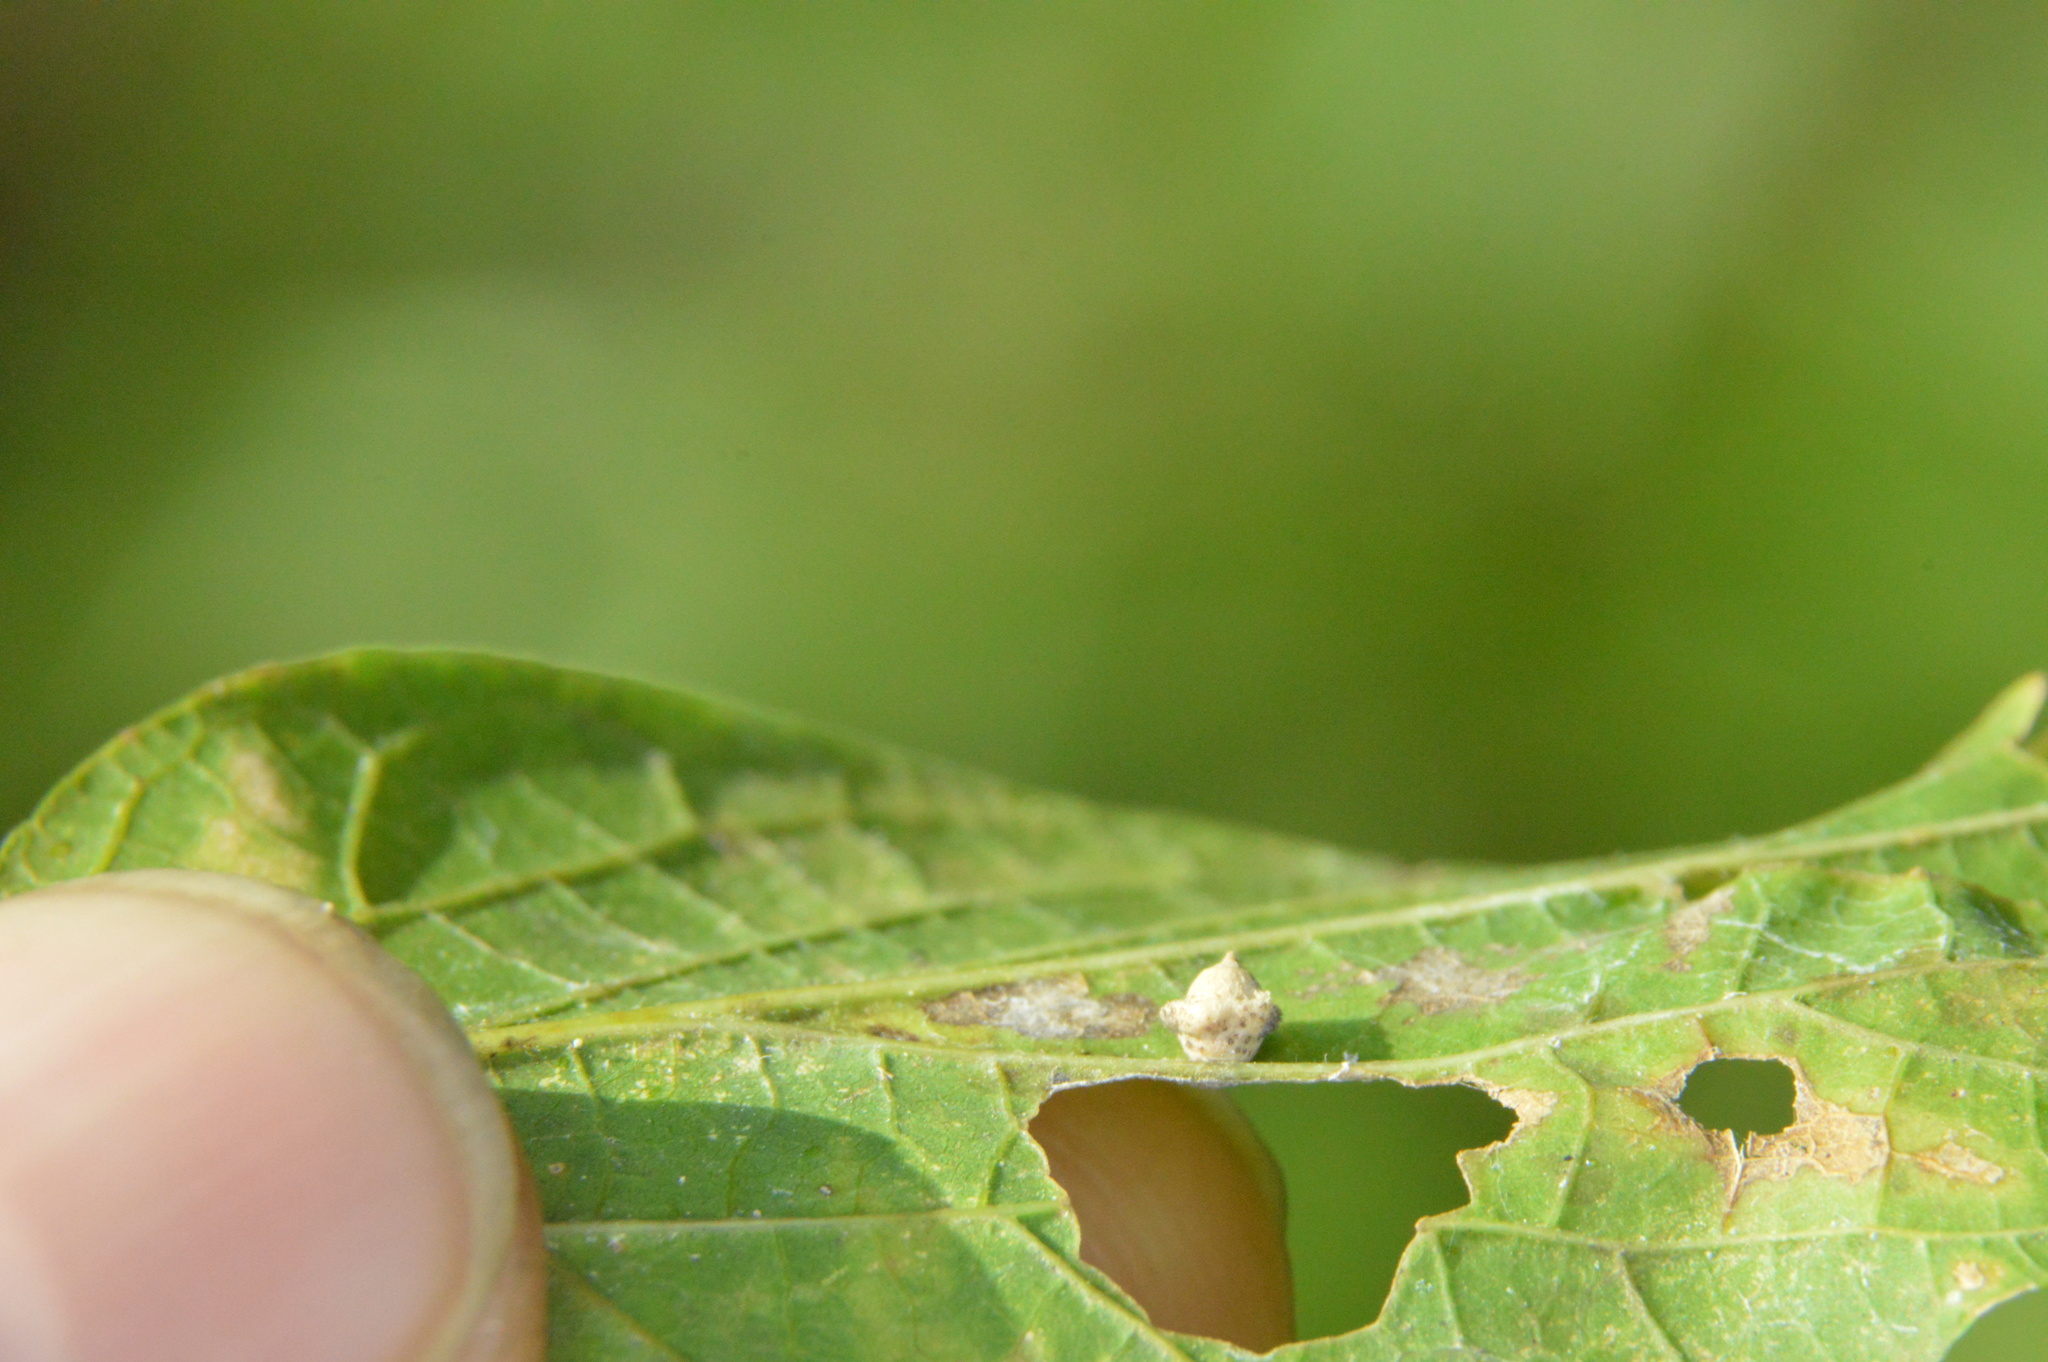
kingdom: Animalia
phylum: Arthropoda
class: Insecta
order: Diptera
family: Cecidomyiidae
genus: Celticecis
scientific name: Celticecis globosa
